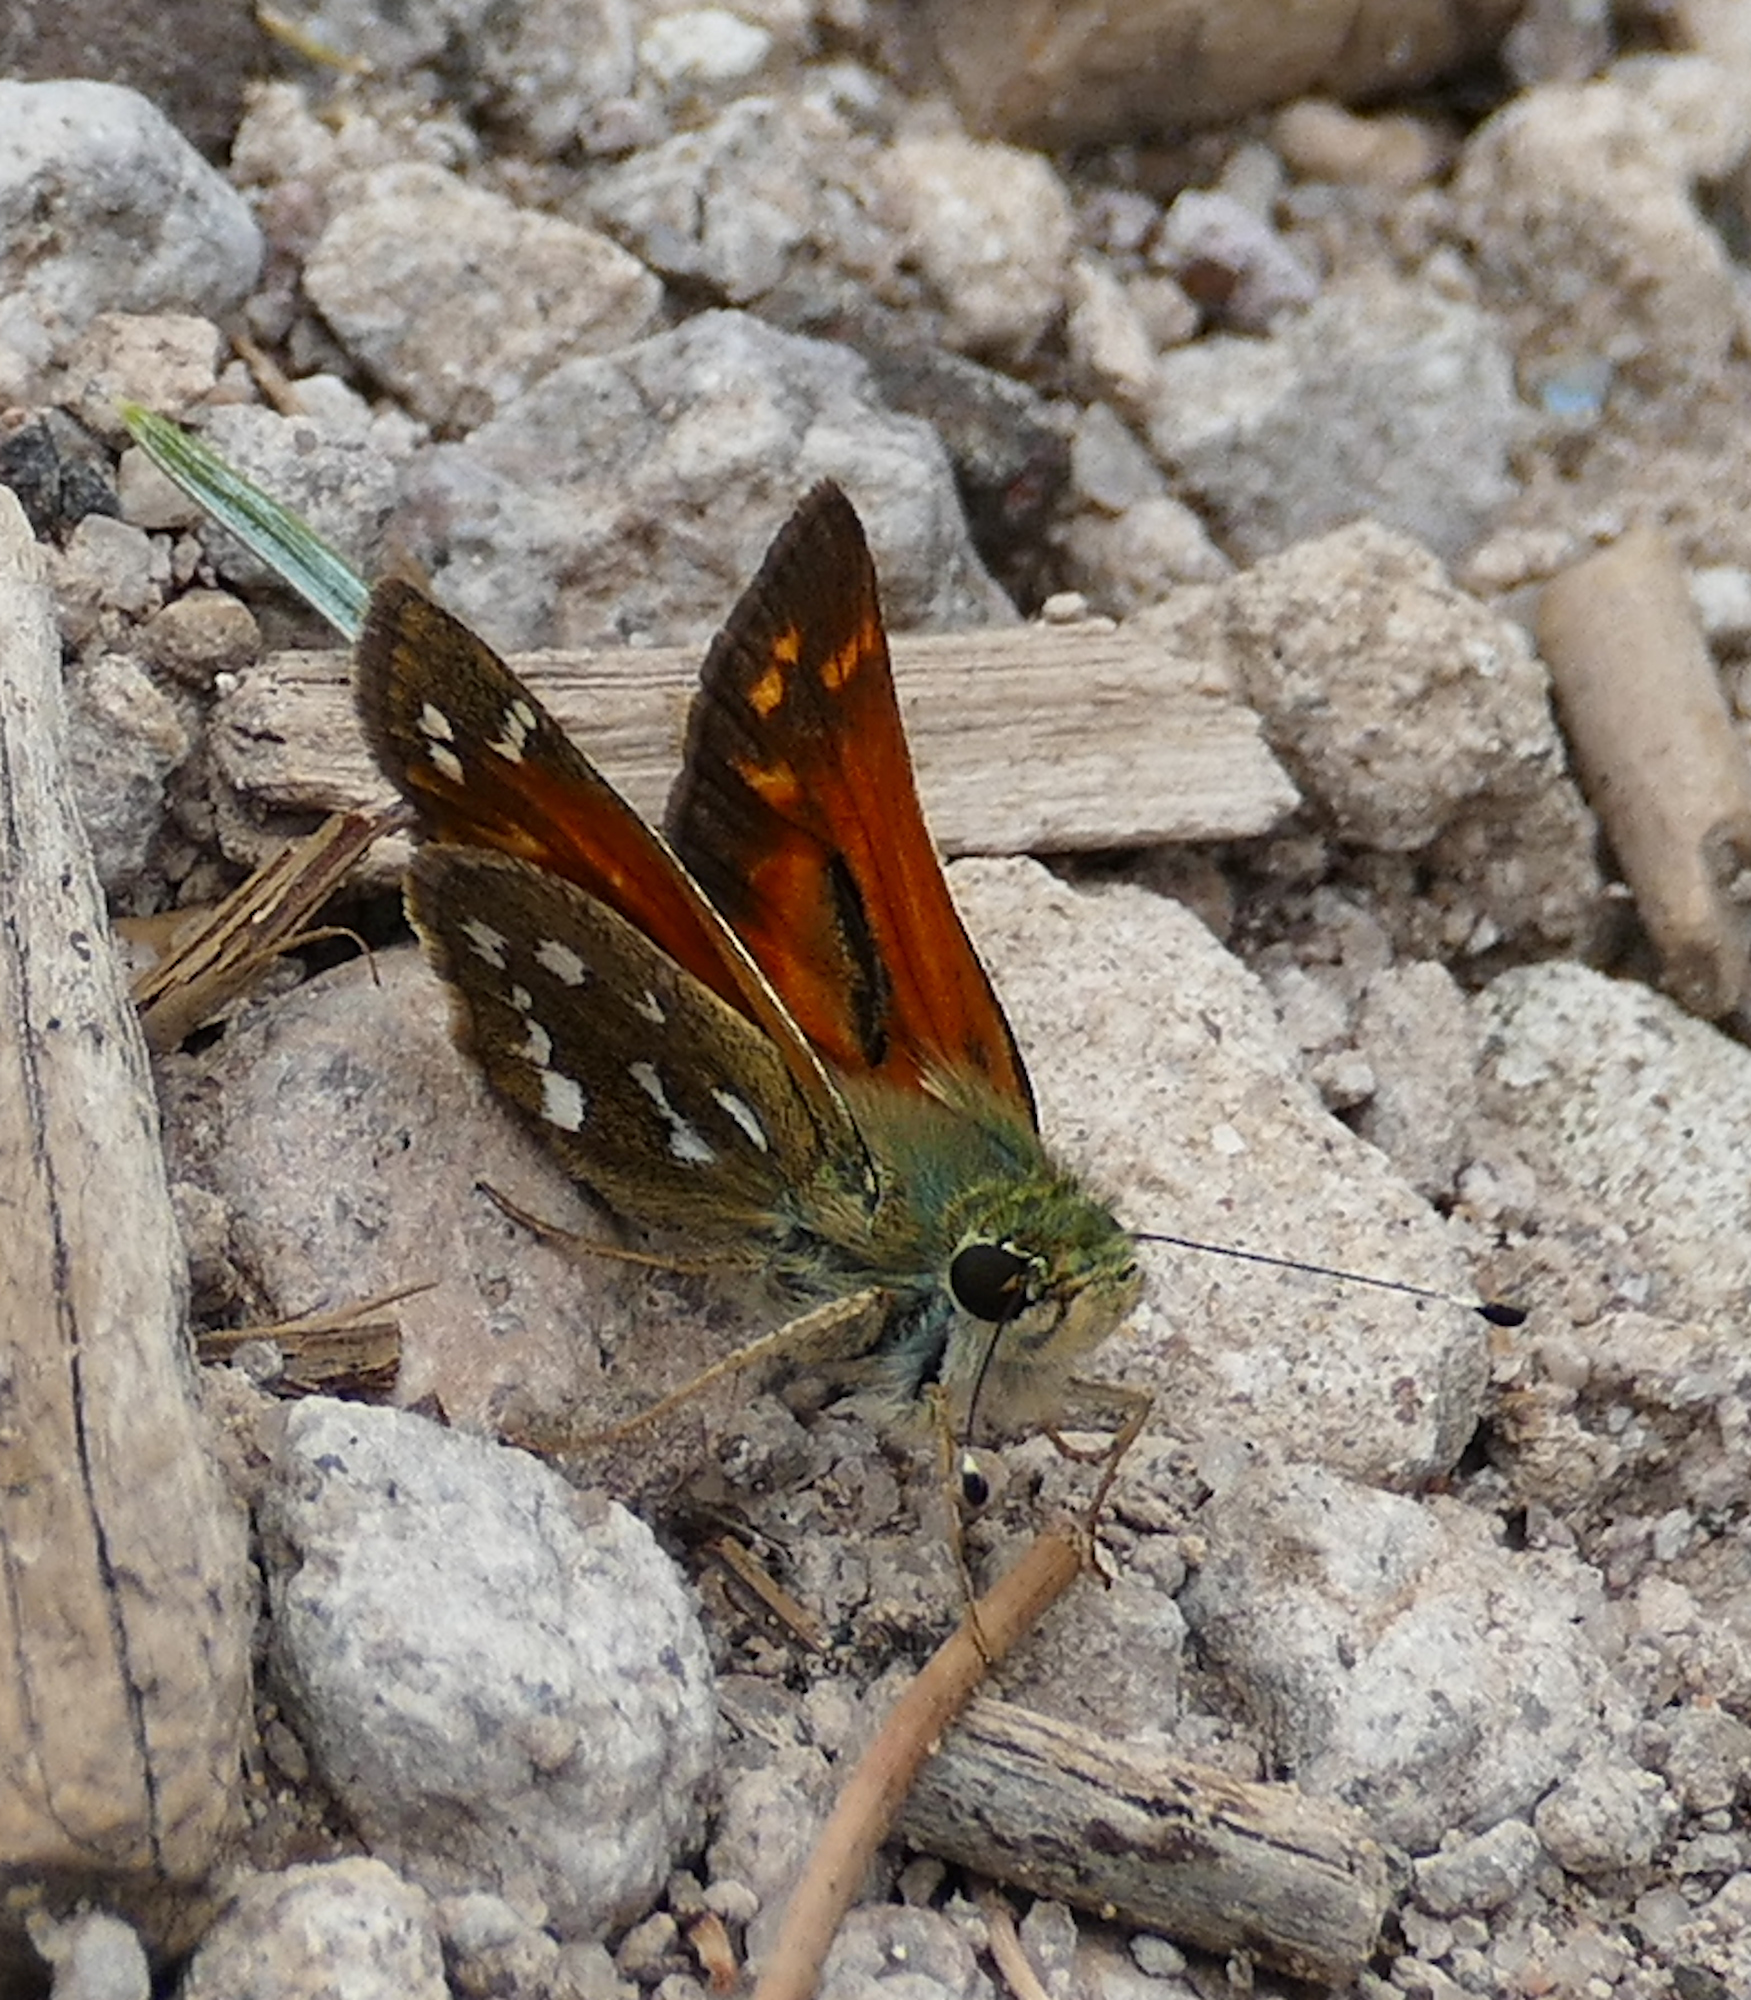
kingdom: Animalia
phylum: Arthropoda
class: Insecta
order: Lepidoptera
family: Hesperiidae
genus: Hesperia
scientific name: Hesperia woodgatei
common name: Apache skipper
